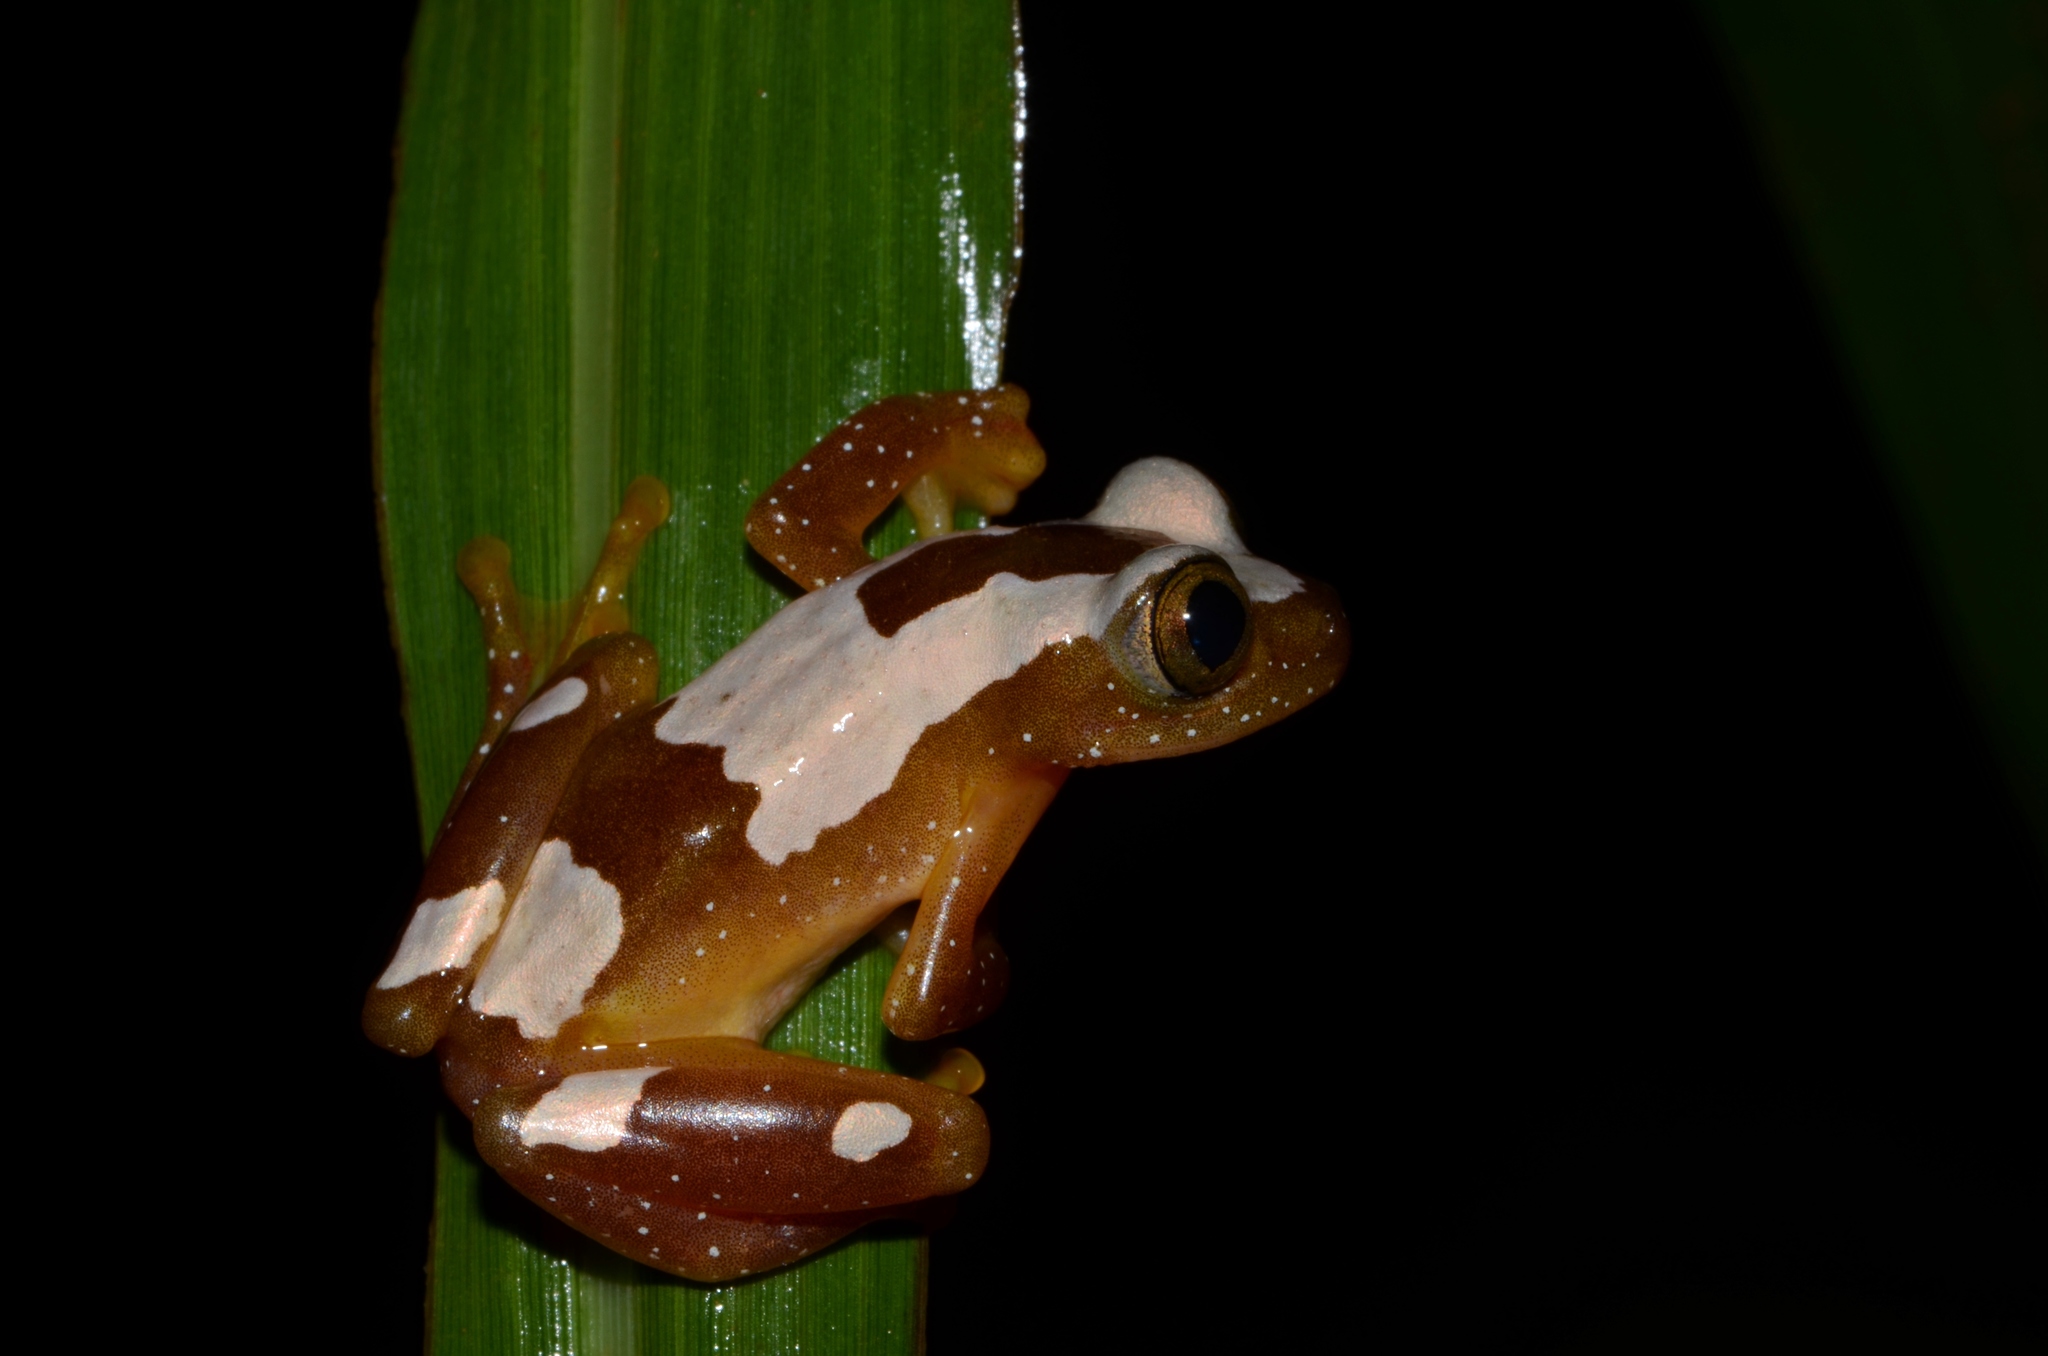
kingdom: Animalia
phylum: Chordata
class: Amphibia
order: Anura
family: Hyperoliidae
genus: Afrixalus
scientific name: Afrixalus paradorsalis
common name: Foulassi banana frog
